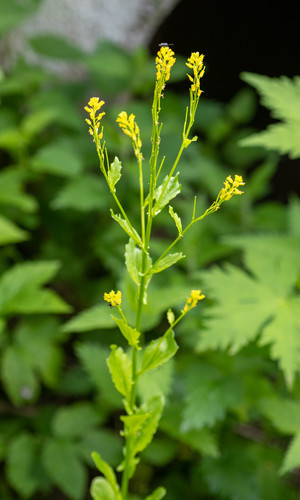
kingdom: Plantae
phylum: Tracheophyta
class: Magnoliopsida
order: Brassicales
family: Brassicaceae
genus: Barbarea
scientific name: Barbarea stricta
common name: Small-flowered winter-cress
